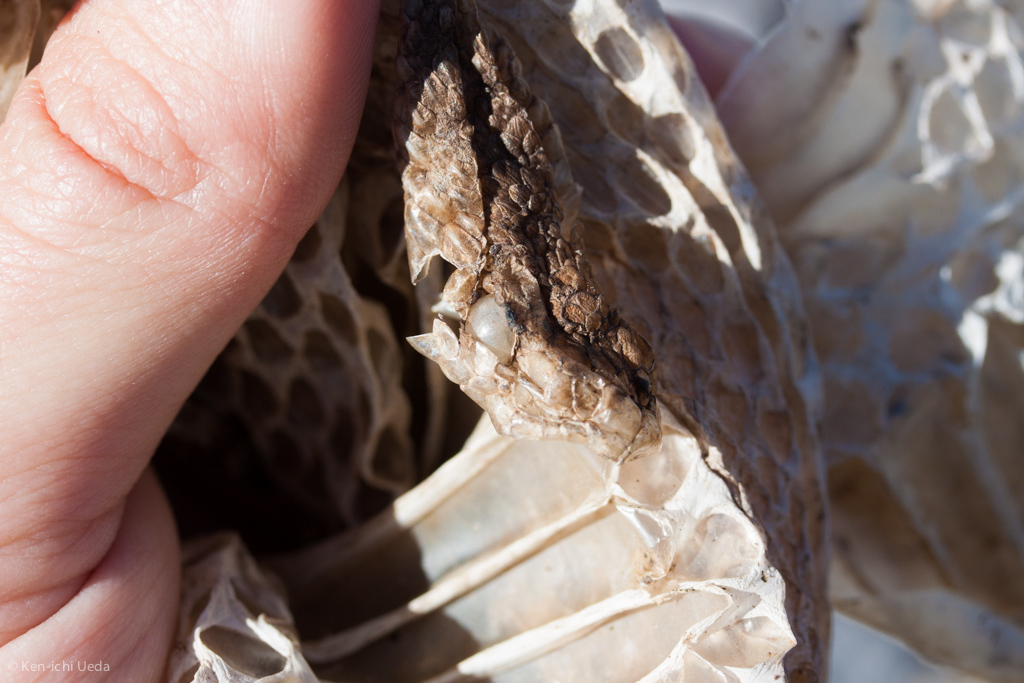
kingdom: Animalia
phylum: Chordata
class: Squamata
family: Viperidae
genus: Crotalus
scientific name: Crotalus oreganus
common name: Abyssus
